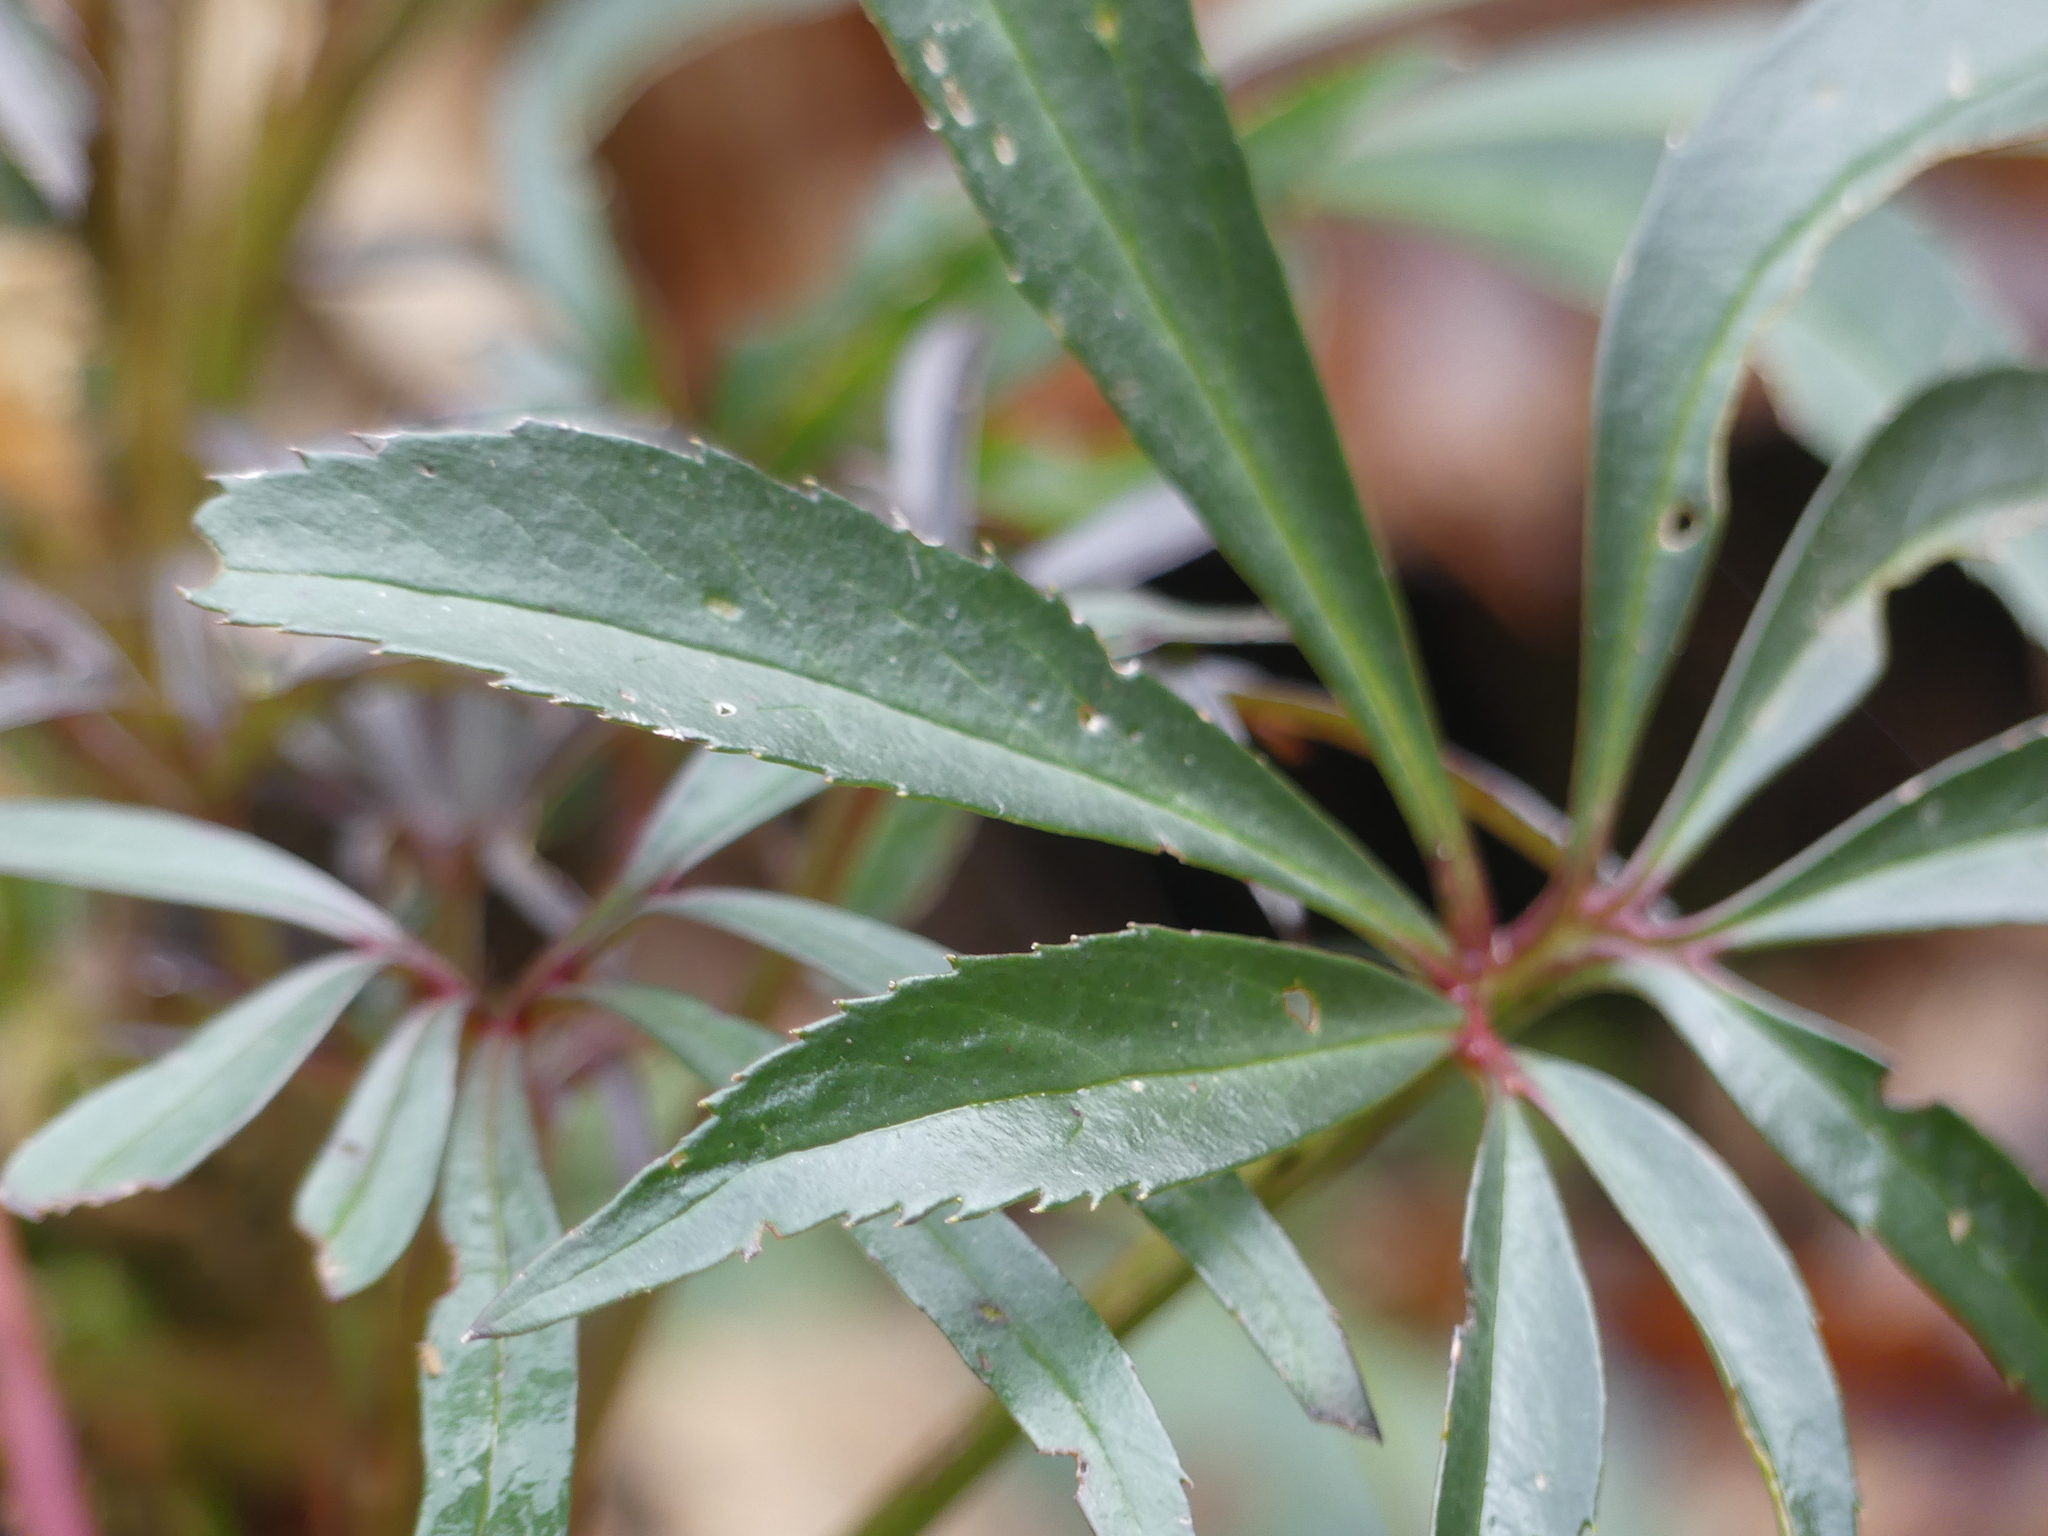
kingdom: Plantae
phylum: Tracheophyta
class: Magnoliopsida
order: Ranunculales
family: Ranunculaceae
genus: Helleborus
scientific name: Helleborus foetidus
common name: Stinking hellebore
